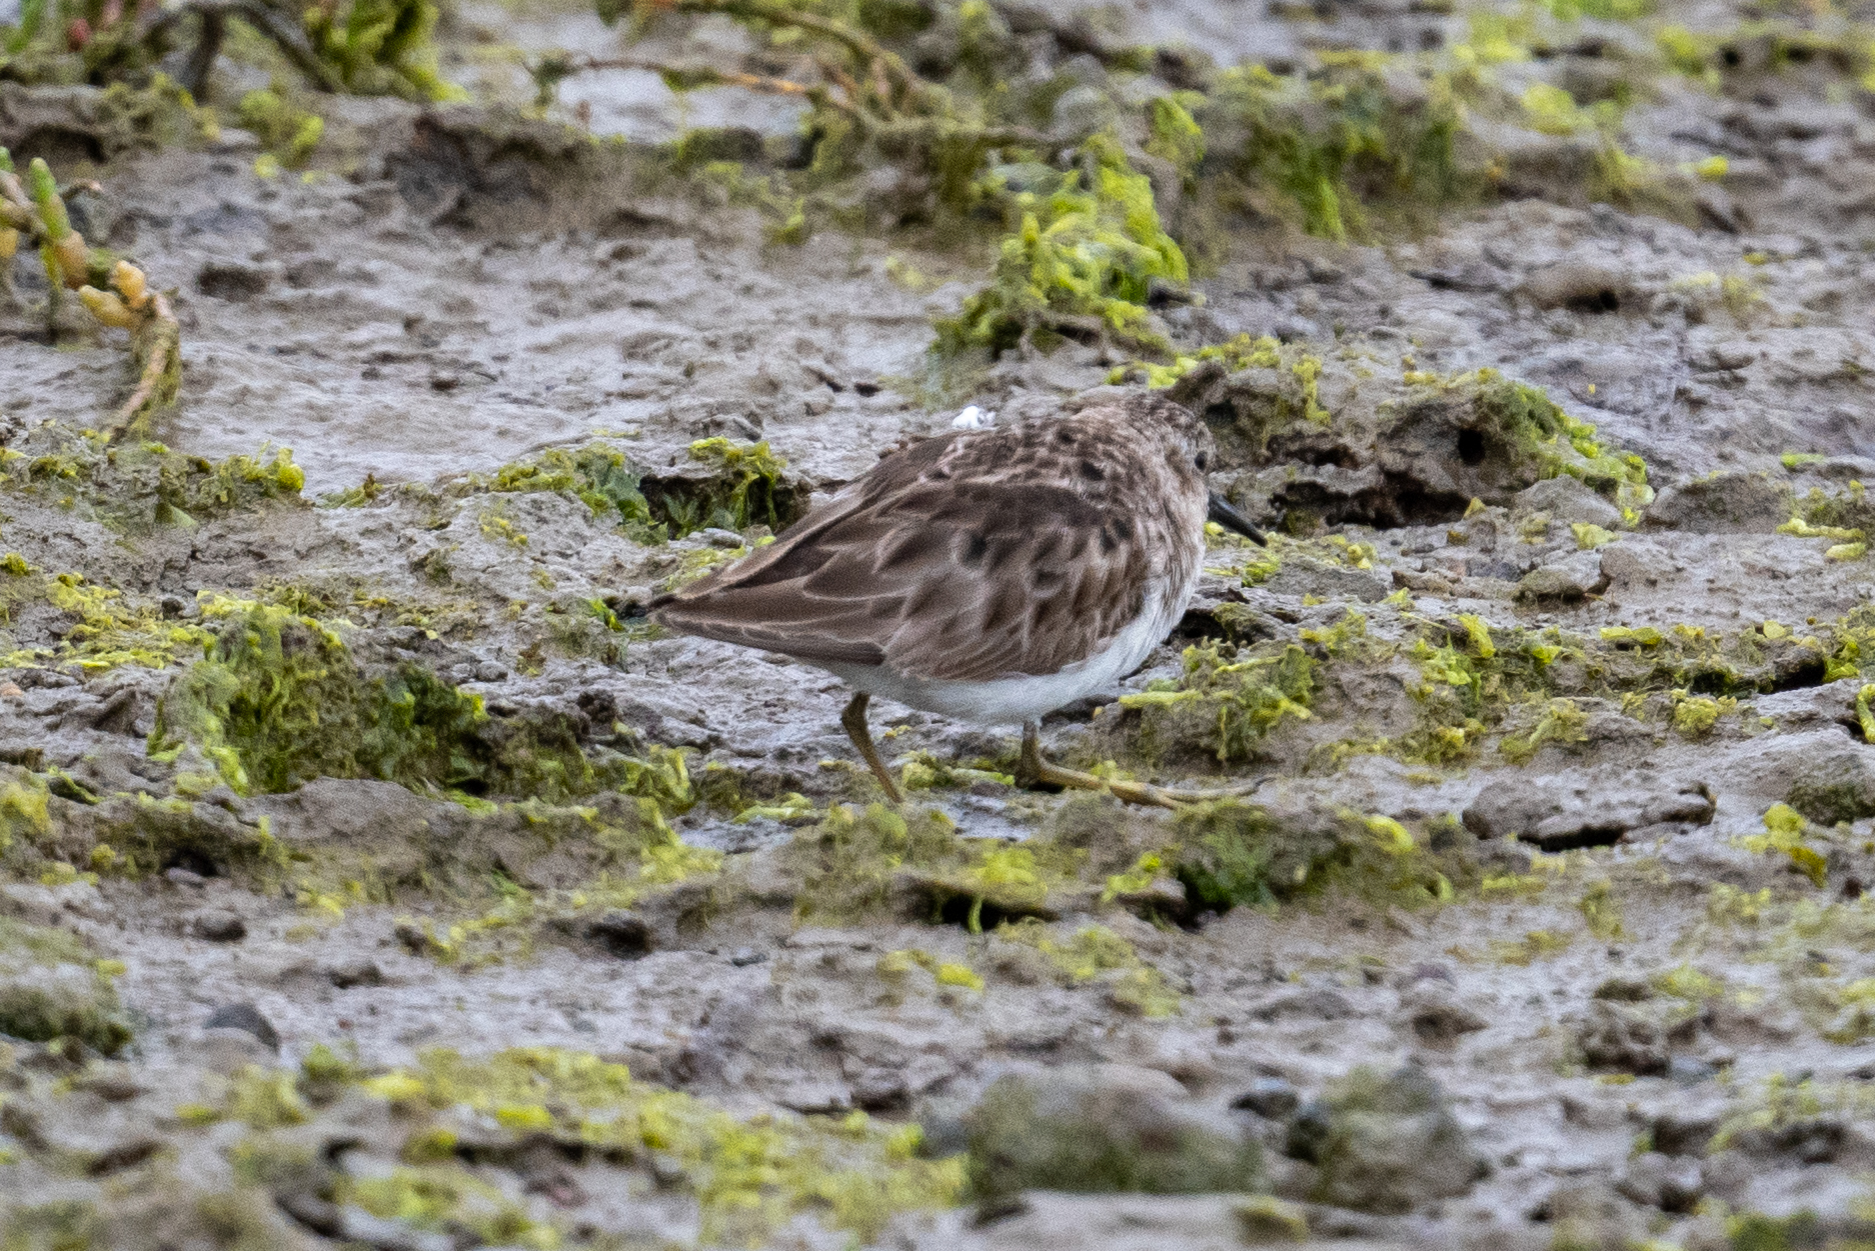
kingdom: Animalia
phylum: Chordata
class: Aves
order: Charadriiformes
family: Scolopacidae
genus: Calidris
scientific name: Calidris minutilla
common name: Least sandpiper
